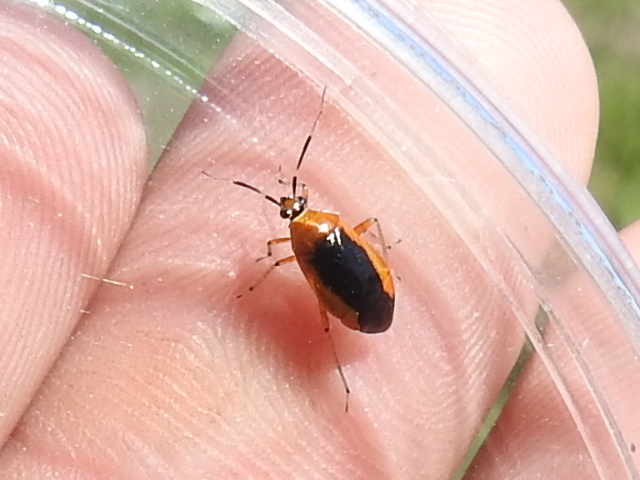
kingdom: Animalia
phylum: Arthropoda
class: Insecta
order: Hemiptera
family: Miridae
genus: Metriorrhynchomiris
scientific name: Metriorrhynchomiris dislocatus
